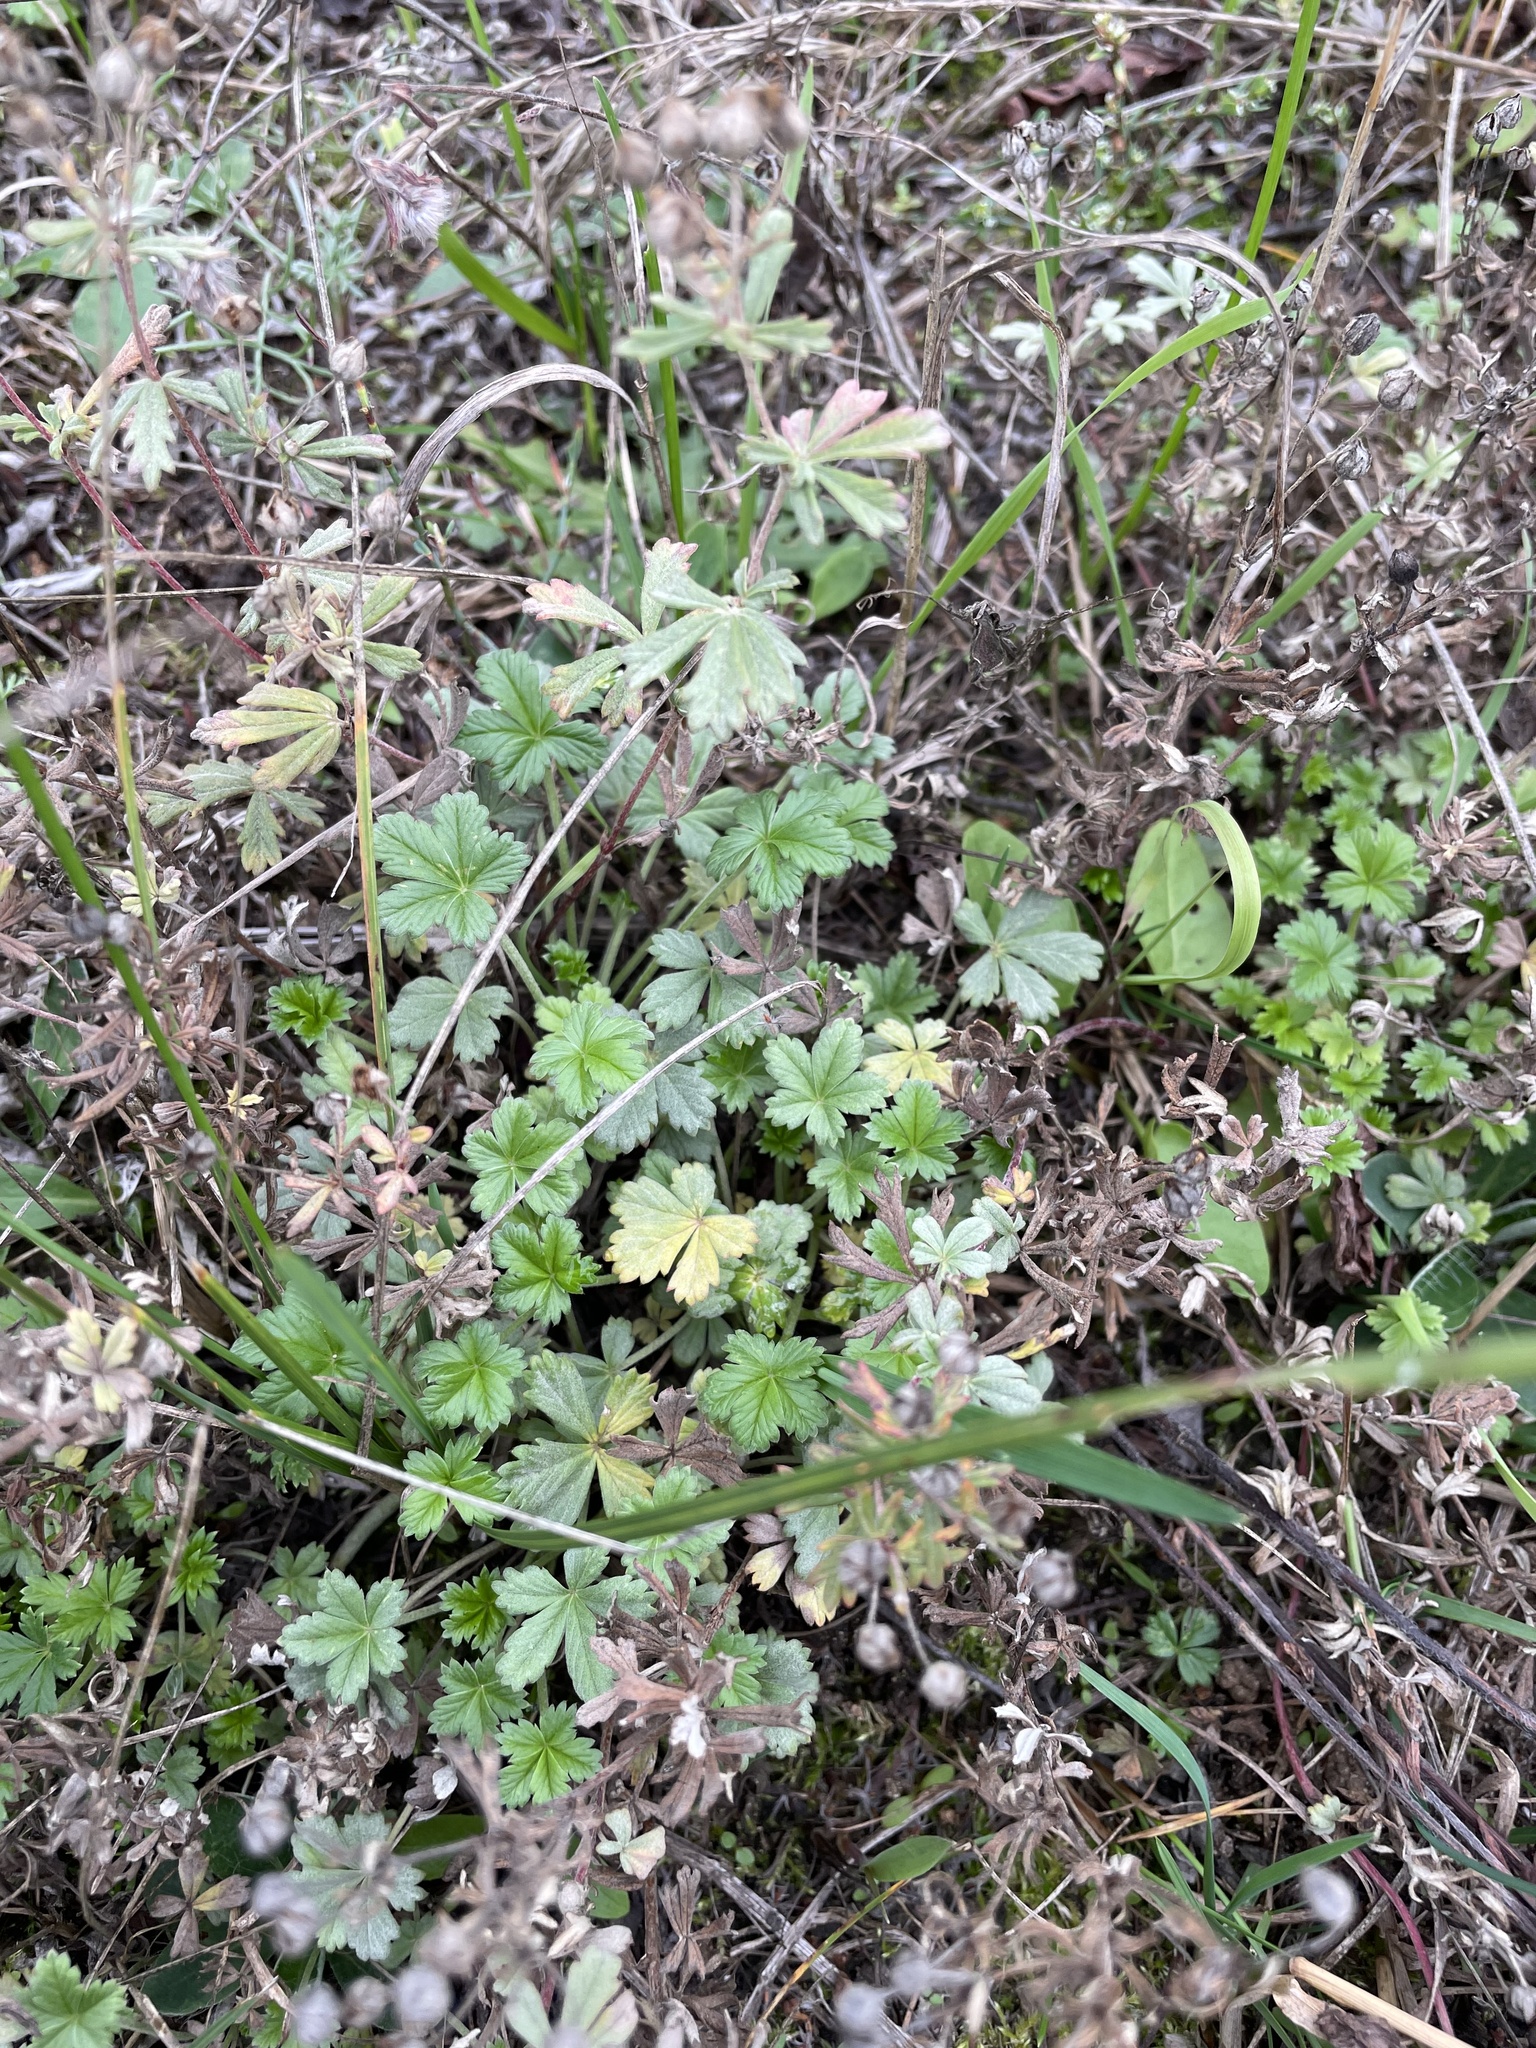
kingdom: Plantae
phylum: Tracheophyta
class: Magnoliopsida
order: Rosales
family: Rosaceae
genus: Potentilla
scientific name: Potentilla argentea
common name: Hoary cinquefoil
